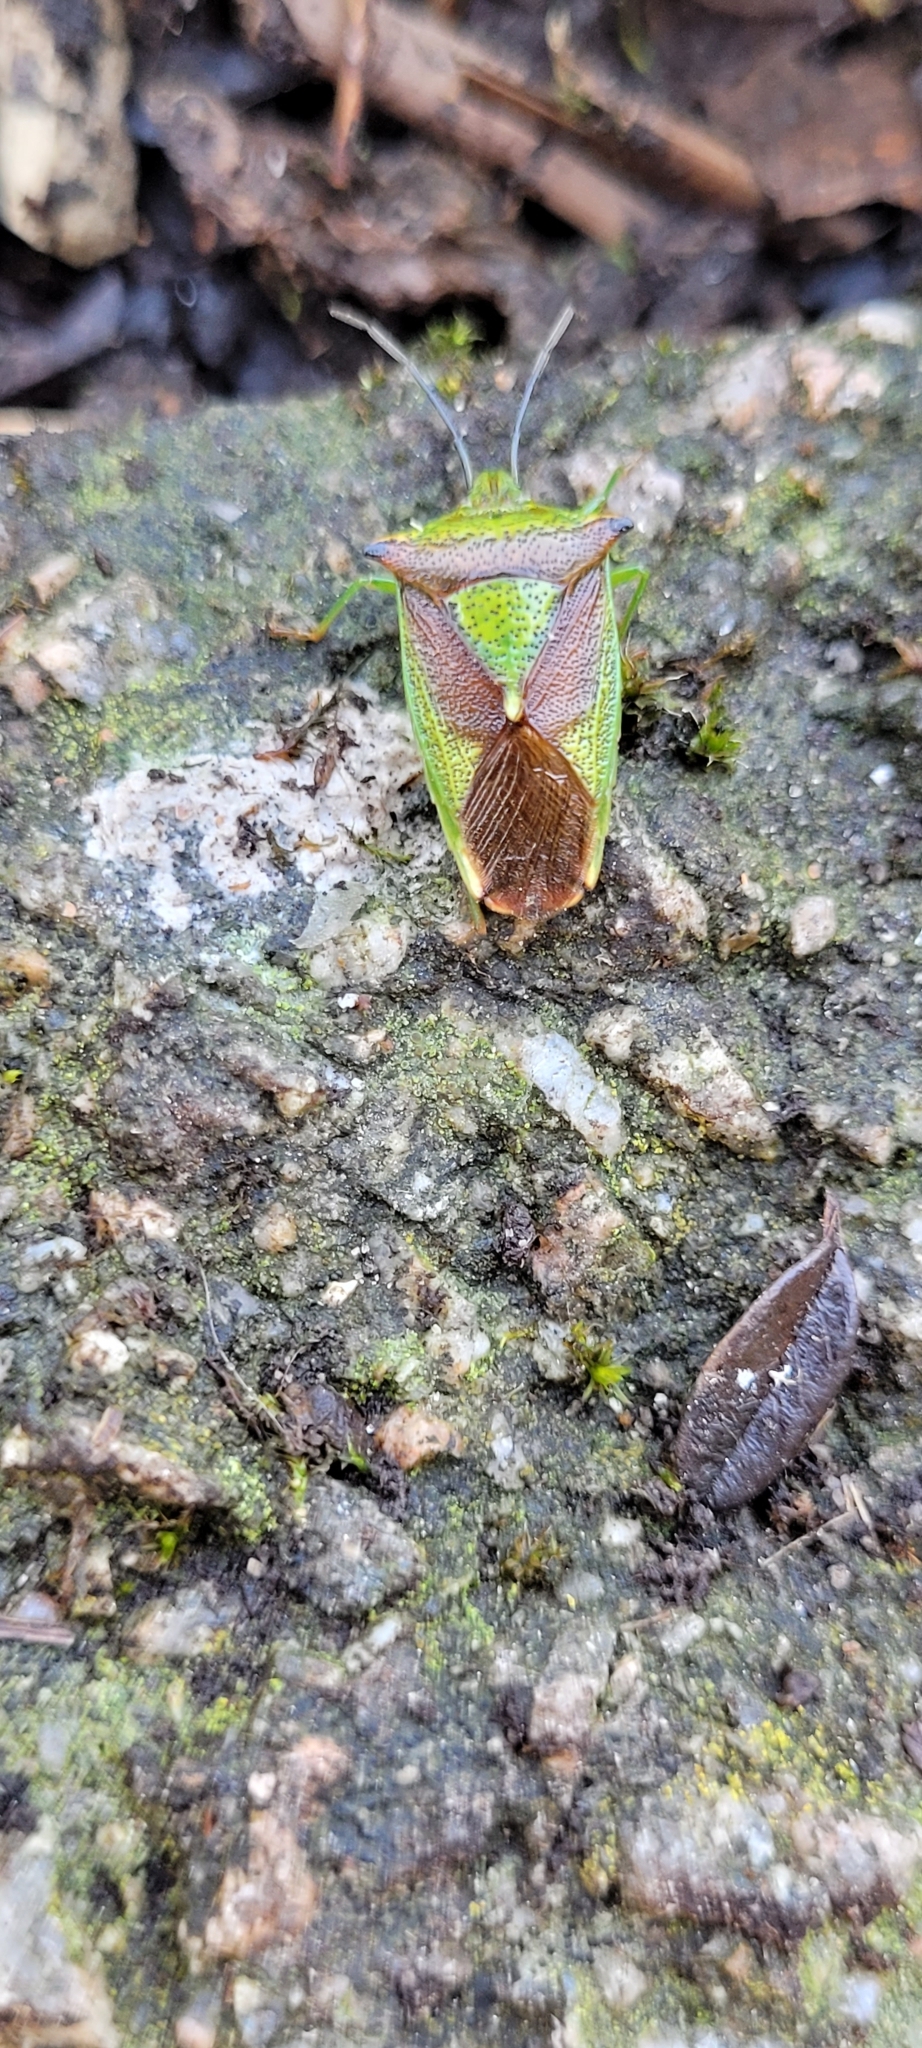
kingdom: Animalia
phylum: Arthropoda
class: Insecta
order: Hemiptera
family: Acanthosomatidae
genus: Acanthosoma
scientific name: Acanthosoma haemorrhoidale
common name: Hawthorn shieldbug
